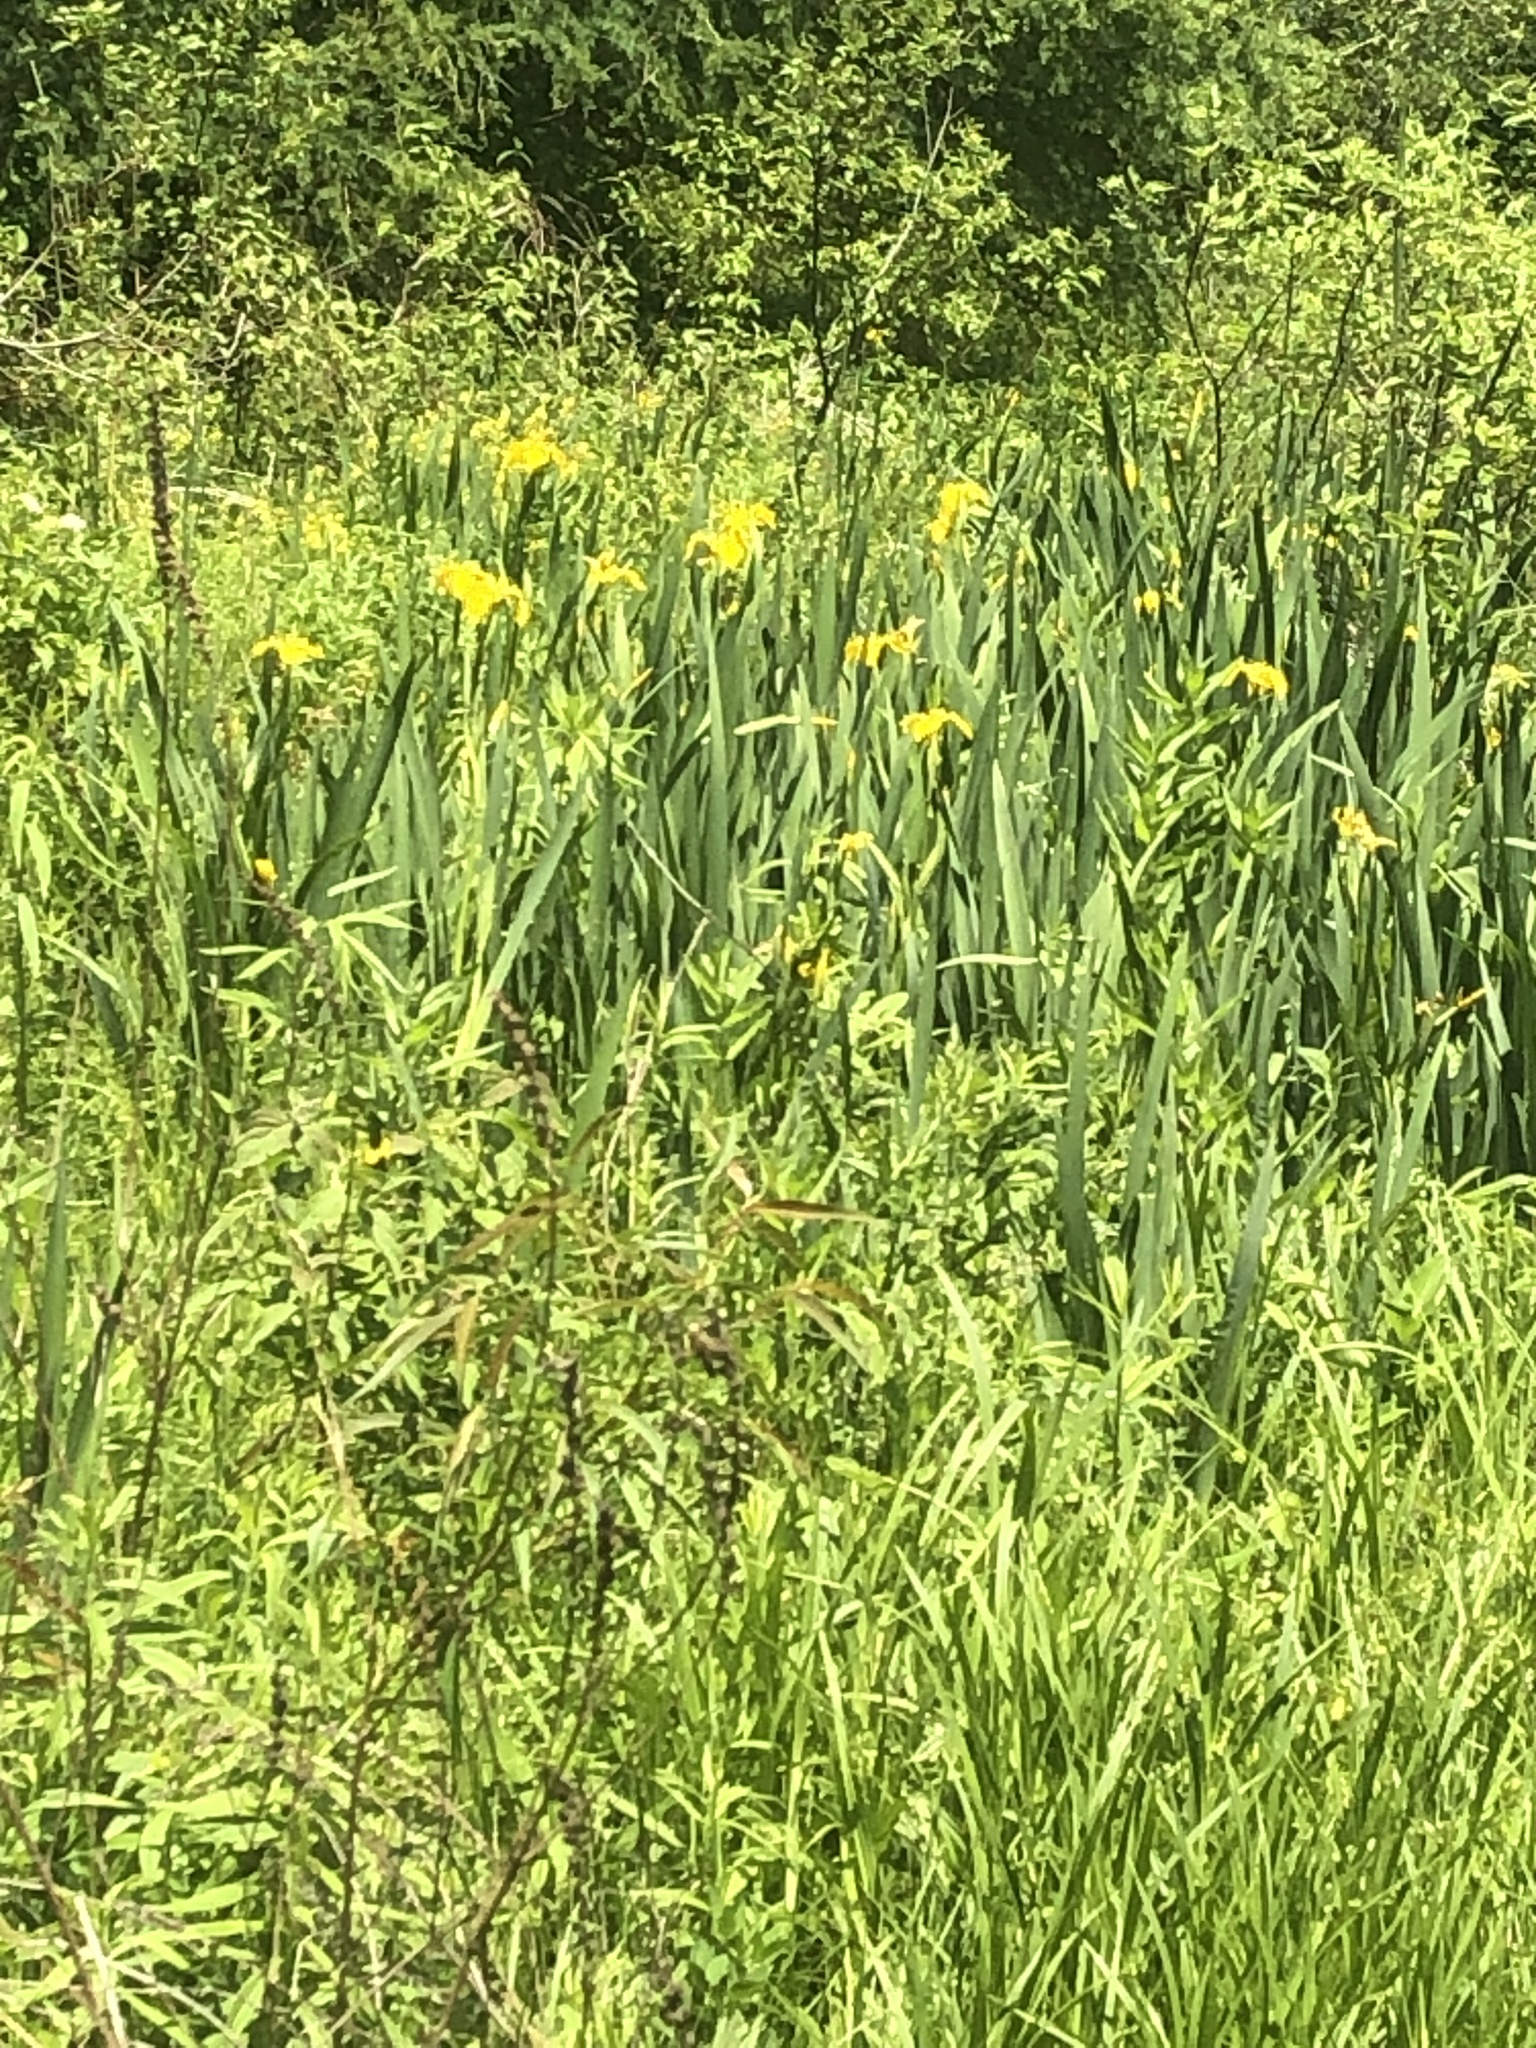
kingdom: Plantae
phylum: Tracheophyta
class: Liliopsida
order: Asparagales
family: Iridaceae
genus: Iris
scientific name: Iris pseudacorus
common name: Yellow flag
